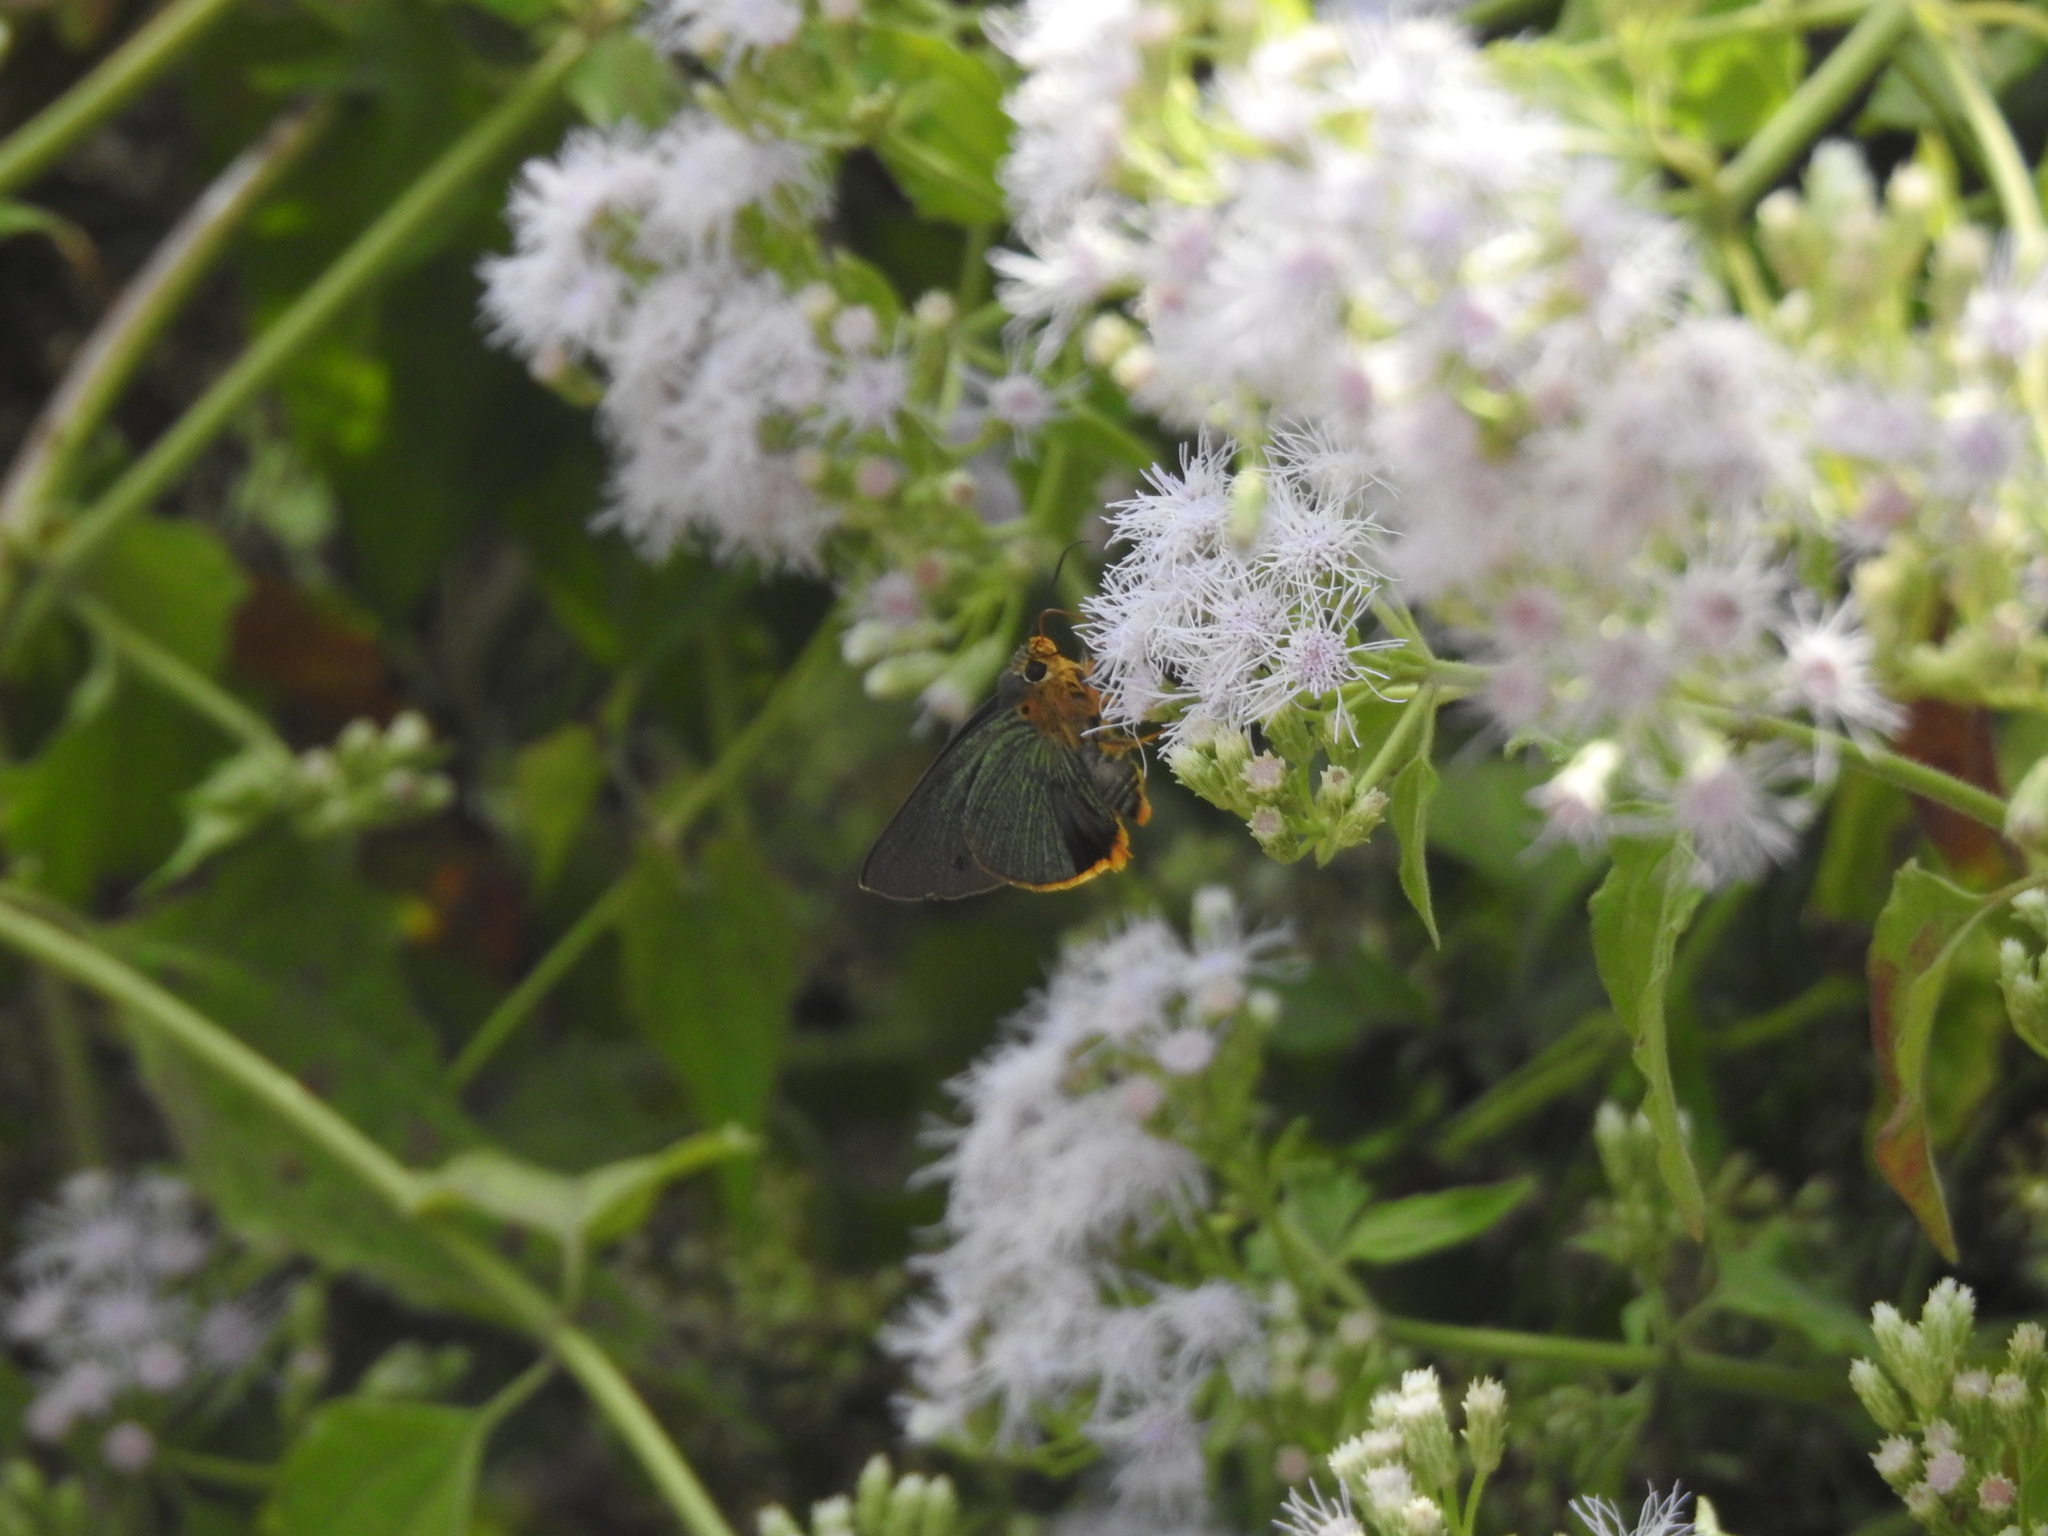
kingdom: Animalia
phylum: Arthropoda
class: Insecta
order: Lepidoptera
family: Hesperiidae
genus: Bibasis
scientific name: Bibasis vasutana
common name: Green awlet
